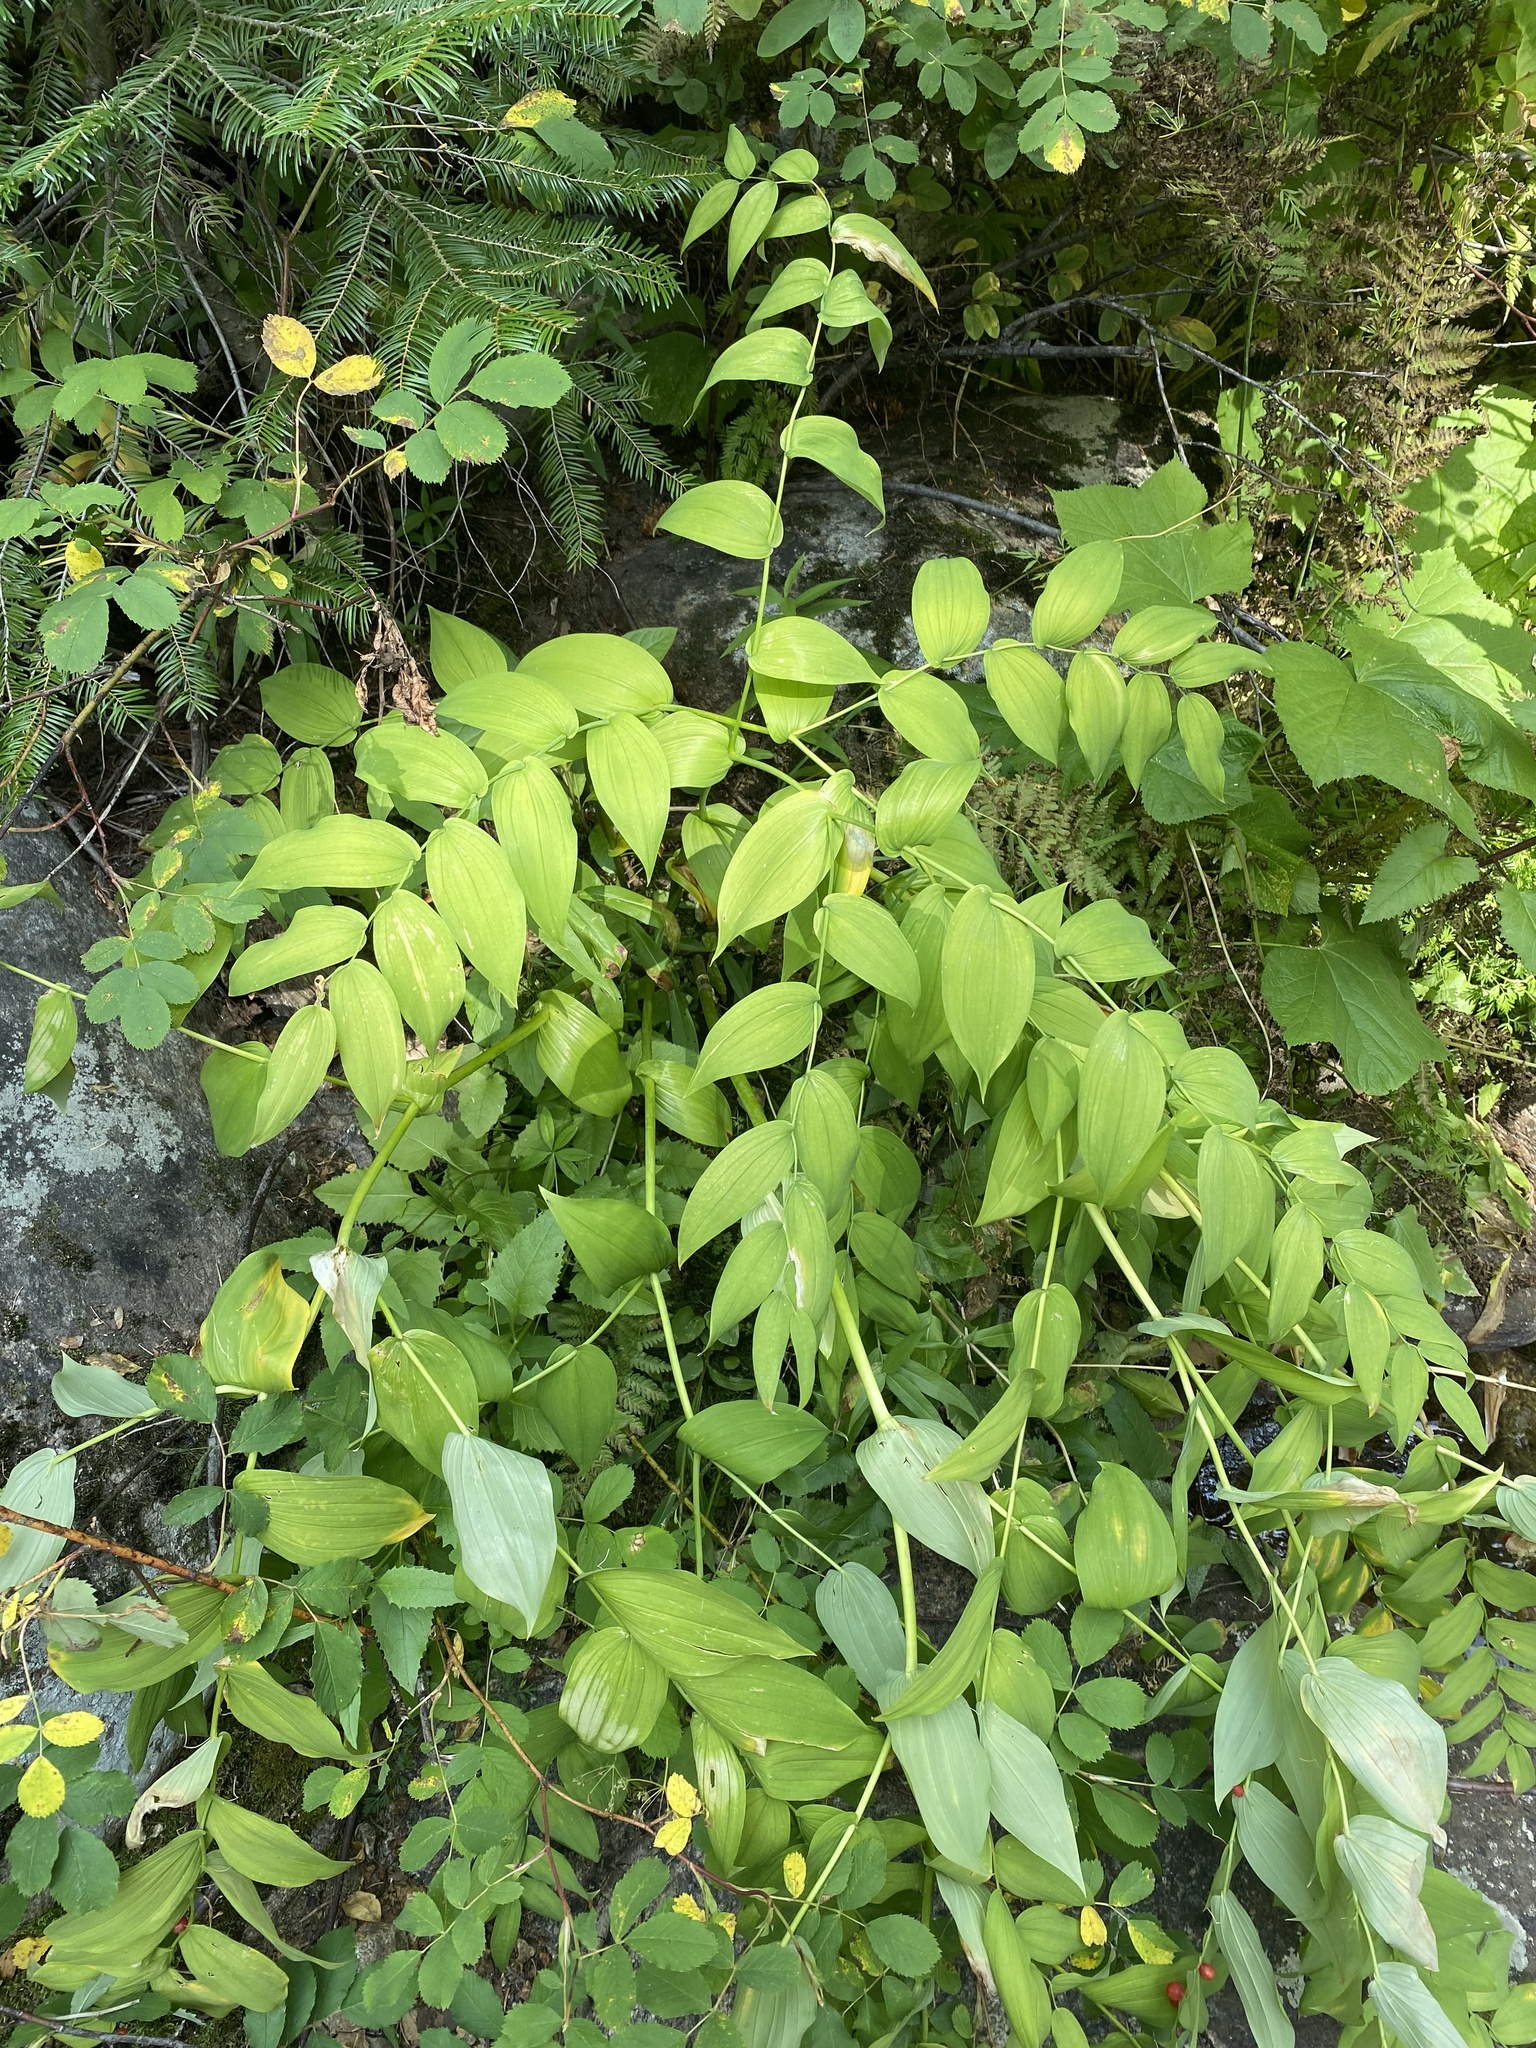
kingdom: Plantae
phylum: Tracheophyta
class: Liliopsida
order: Liliales
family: Liliaceae
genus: Streptopus
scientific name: Streptopus amplexifolius
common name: Clasp twisted stalk
